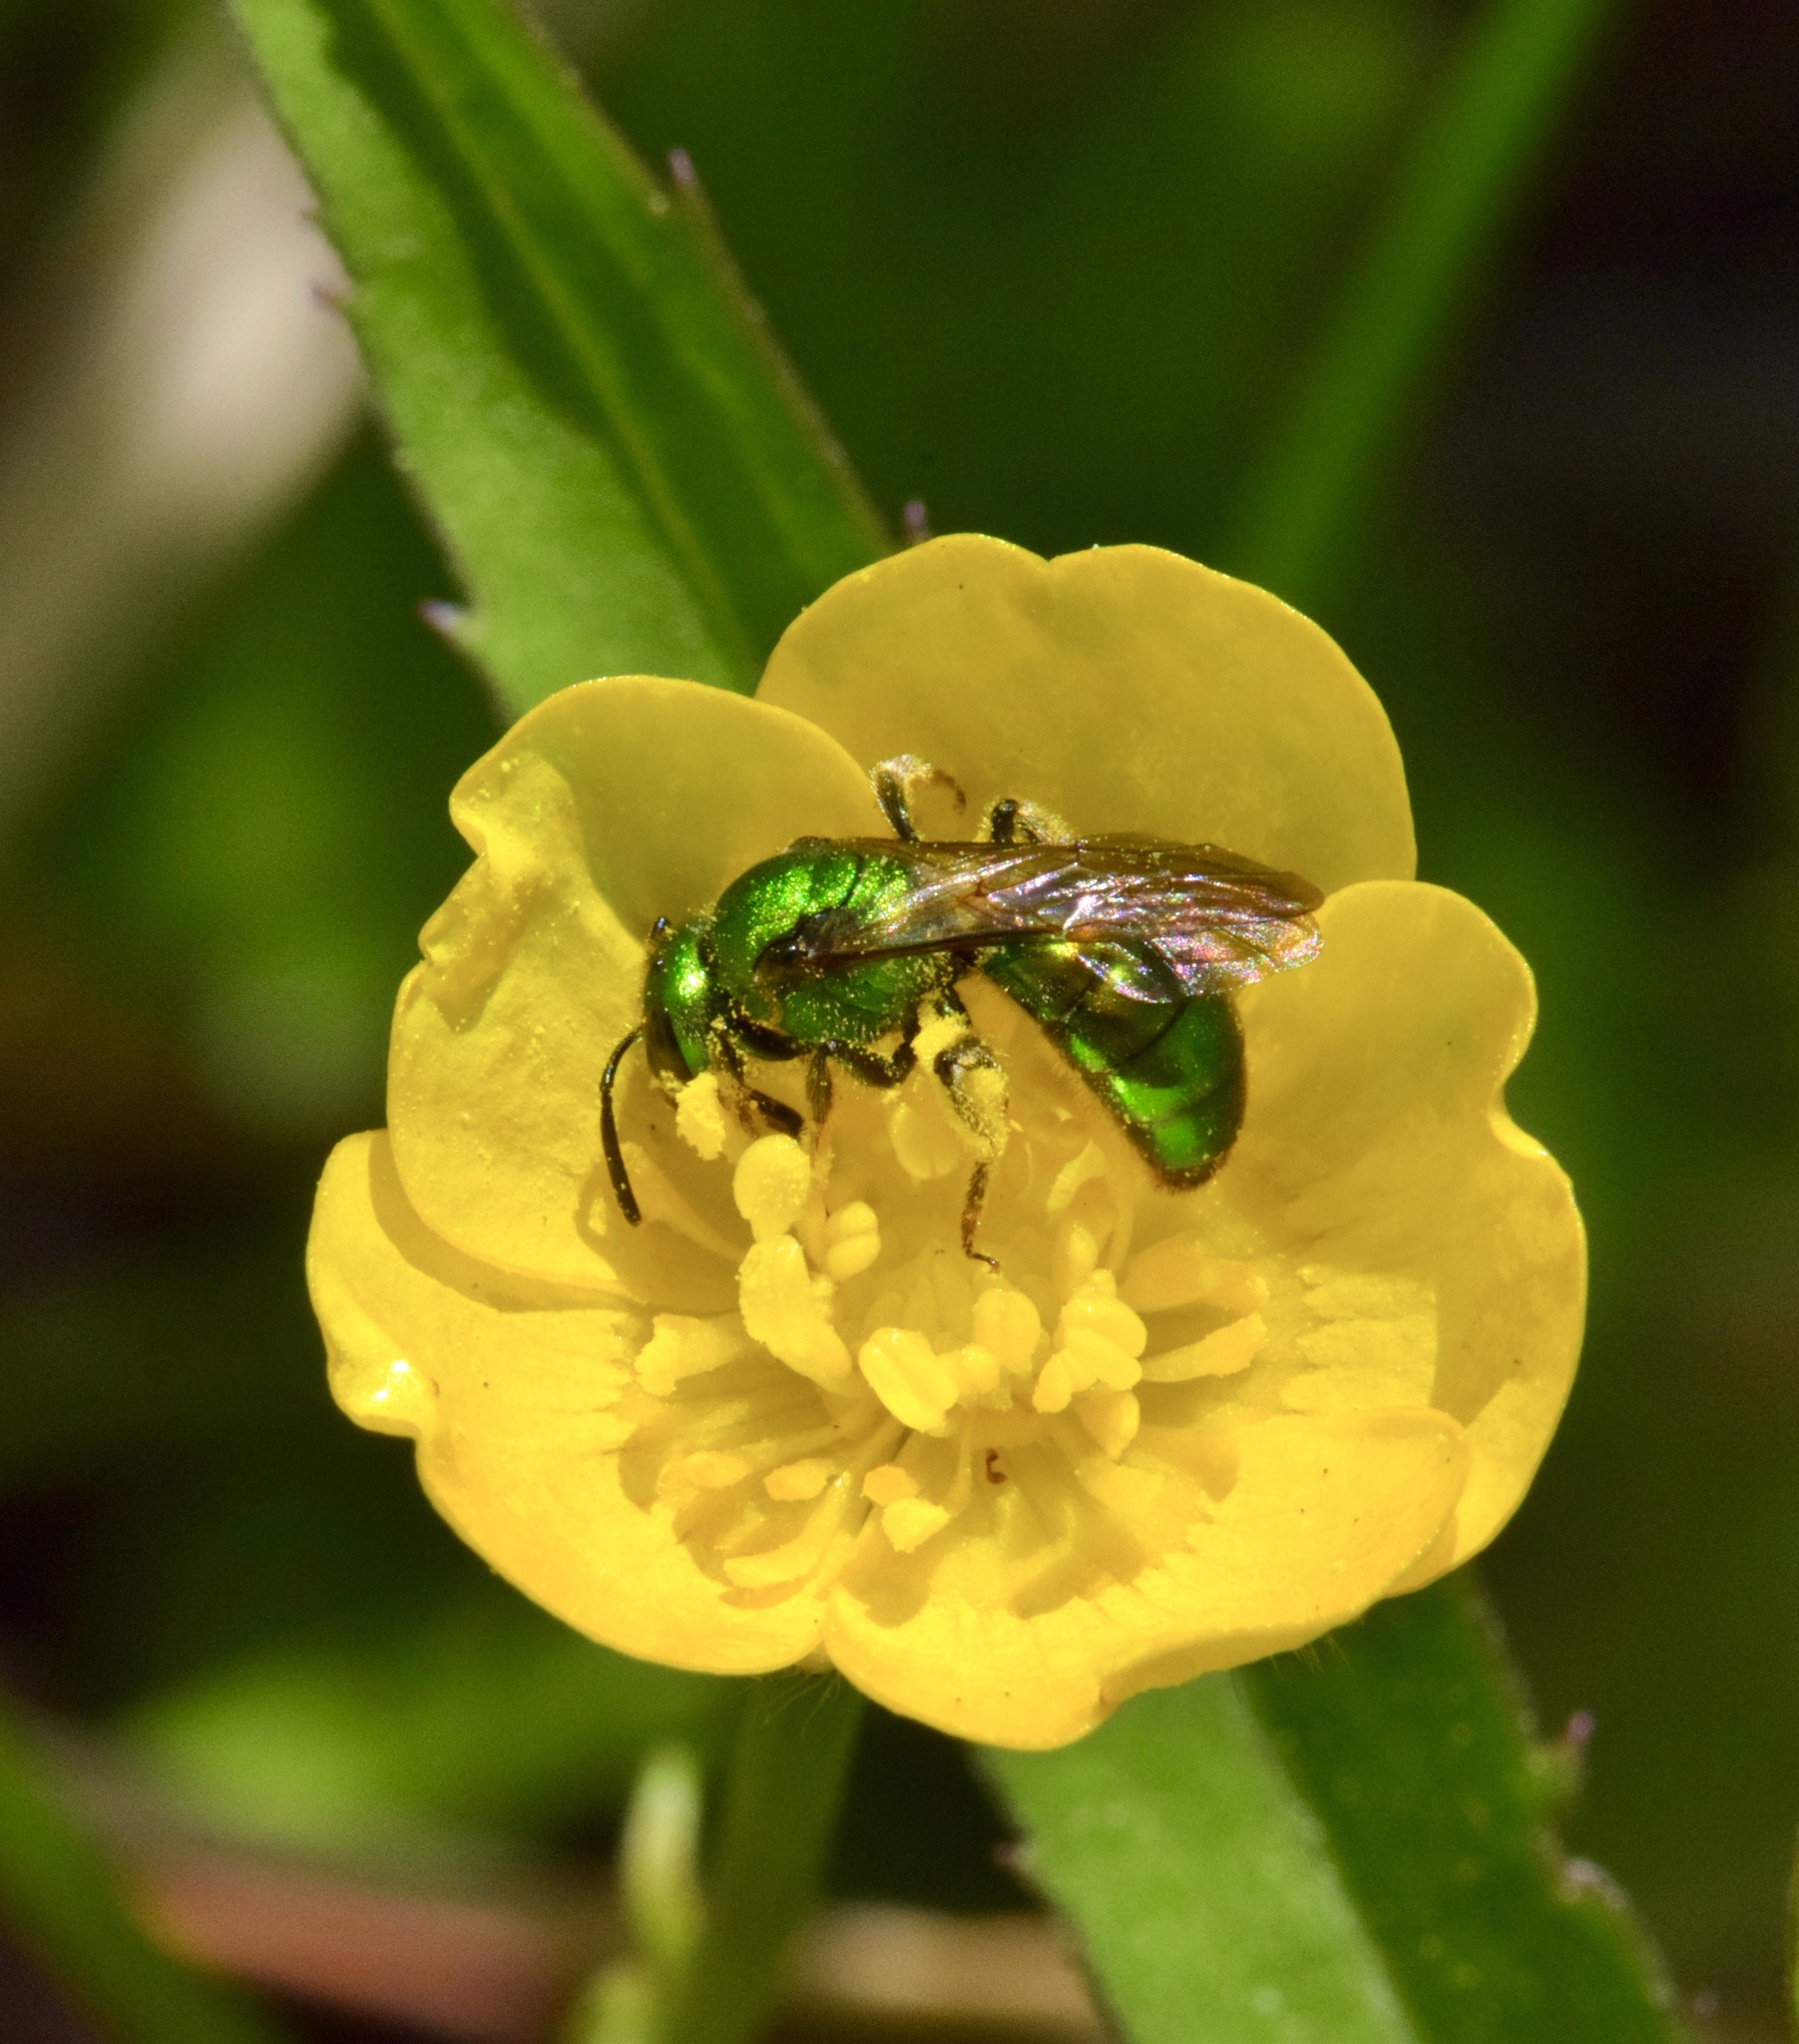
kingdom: Animalia
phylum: Arthropoda
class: Insecta
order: Hymenoptera
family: Halictidae
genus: Augochlora
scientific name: Augochlora pura
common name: Pure green sweat bee
